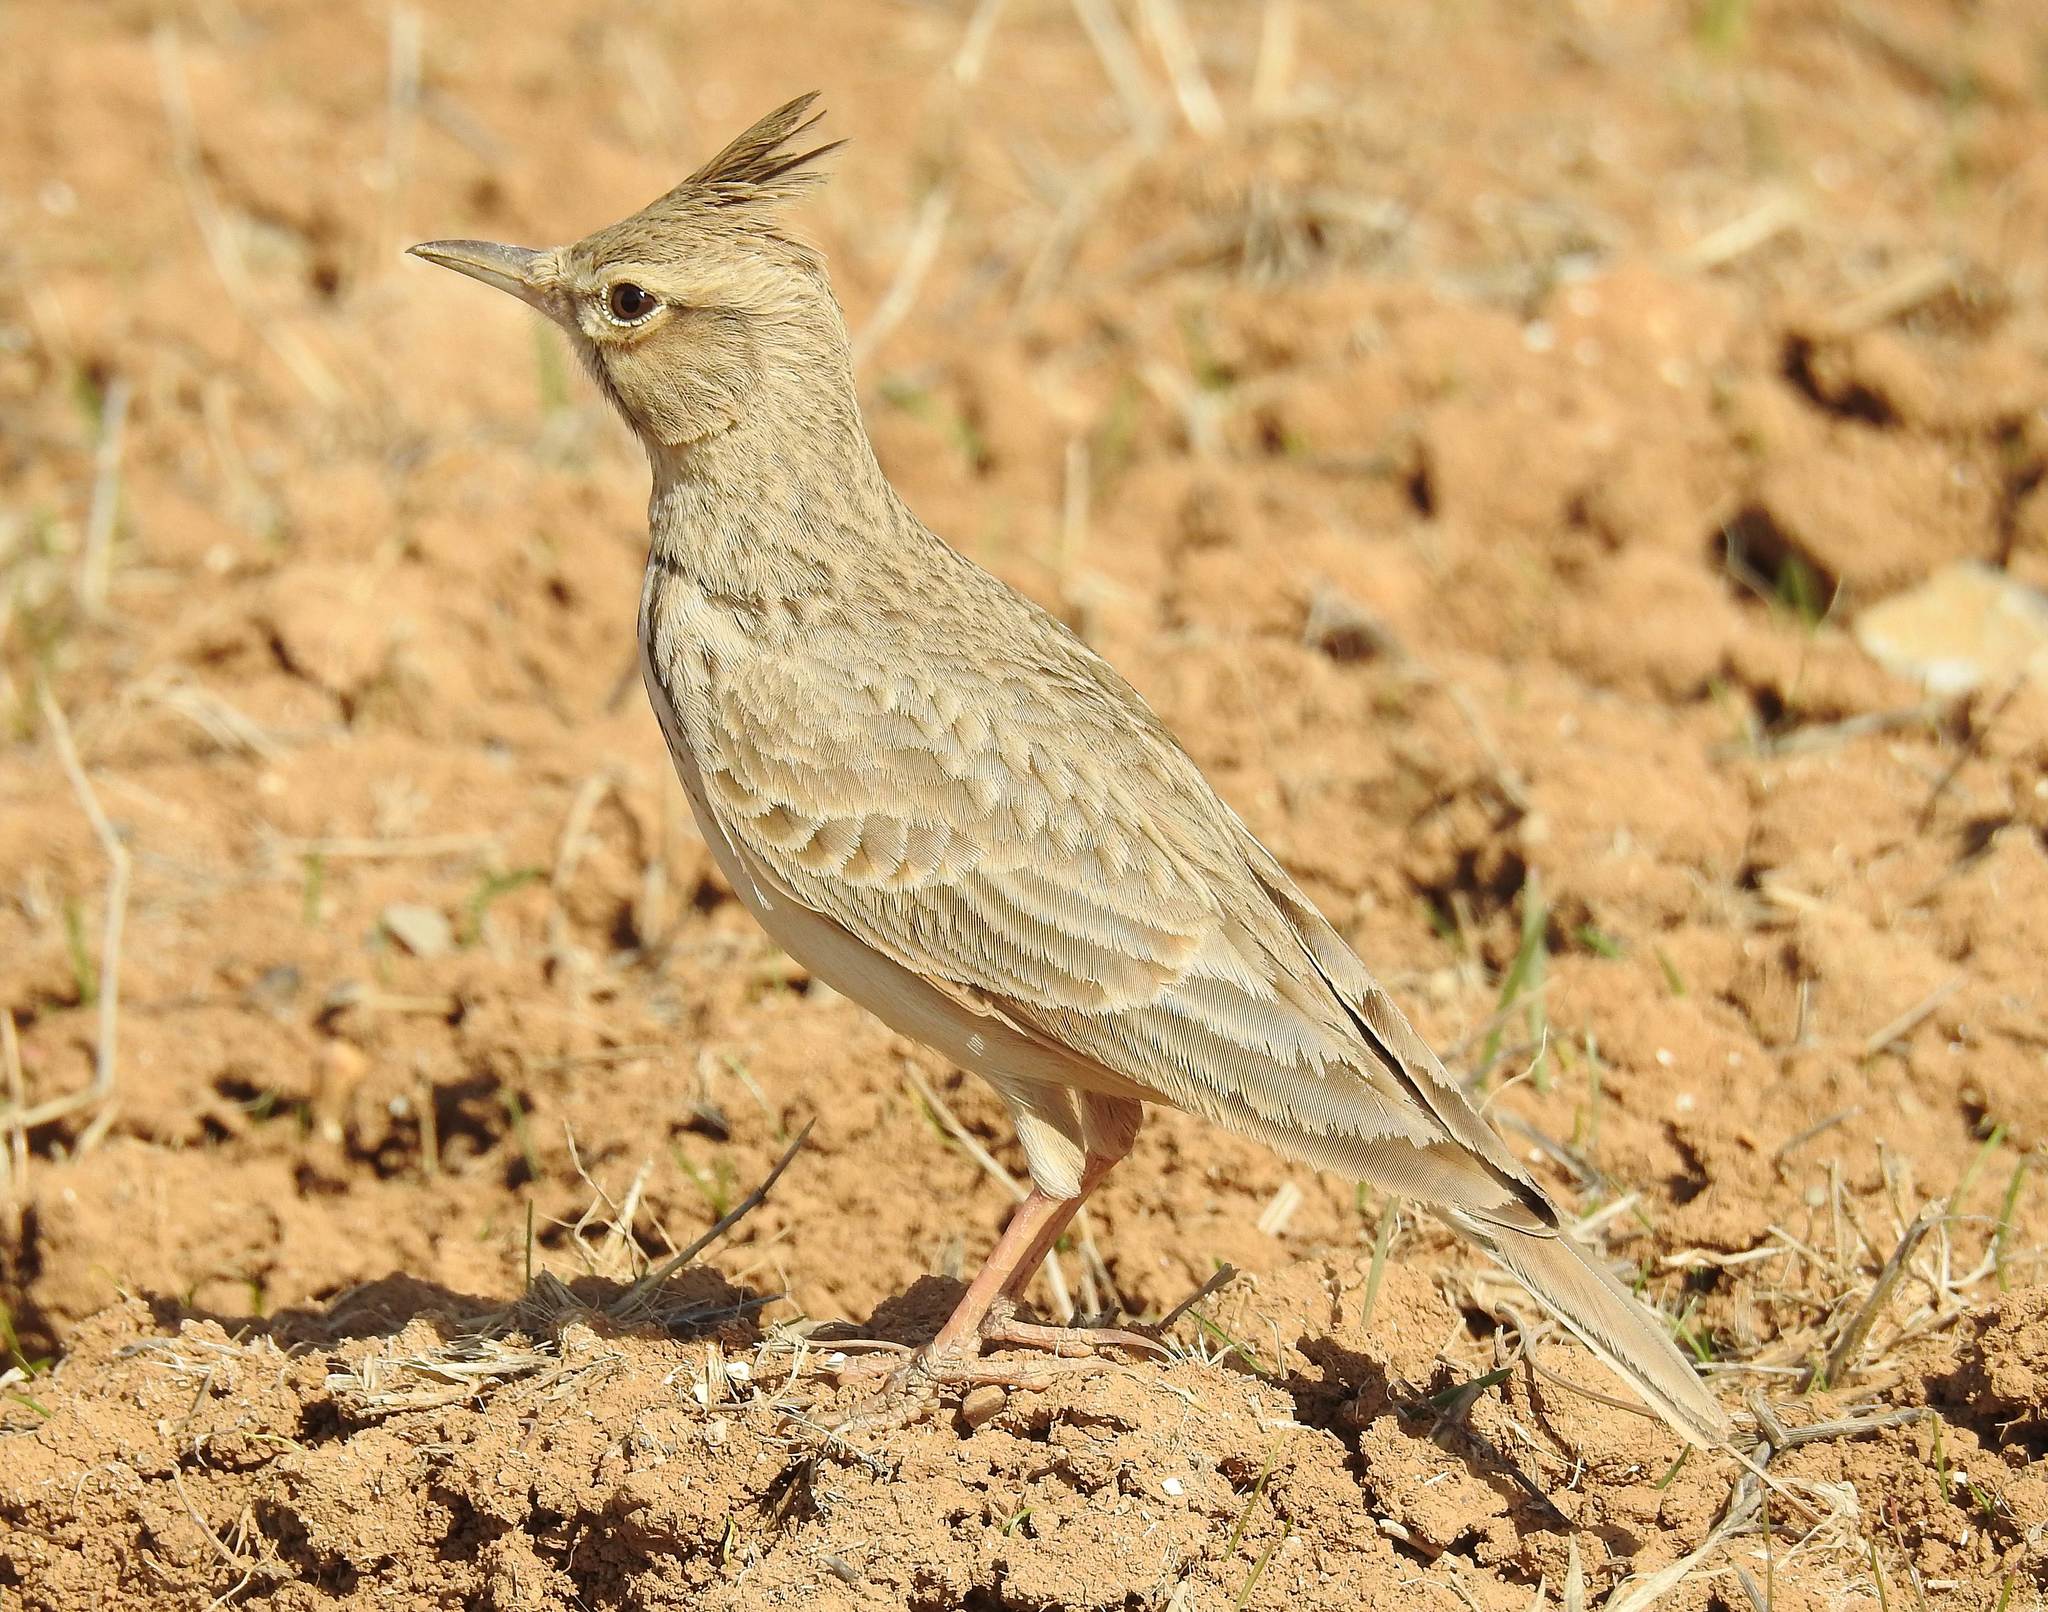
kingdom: Animalia
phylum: Chordata
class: Aves
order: Passeriformes
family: Alaudidae
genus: Galerida
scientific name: Galerida cristata
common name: Crested lark
